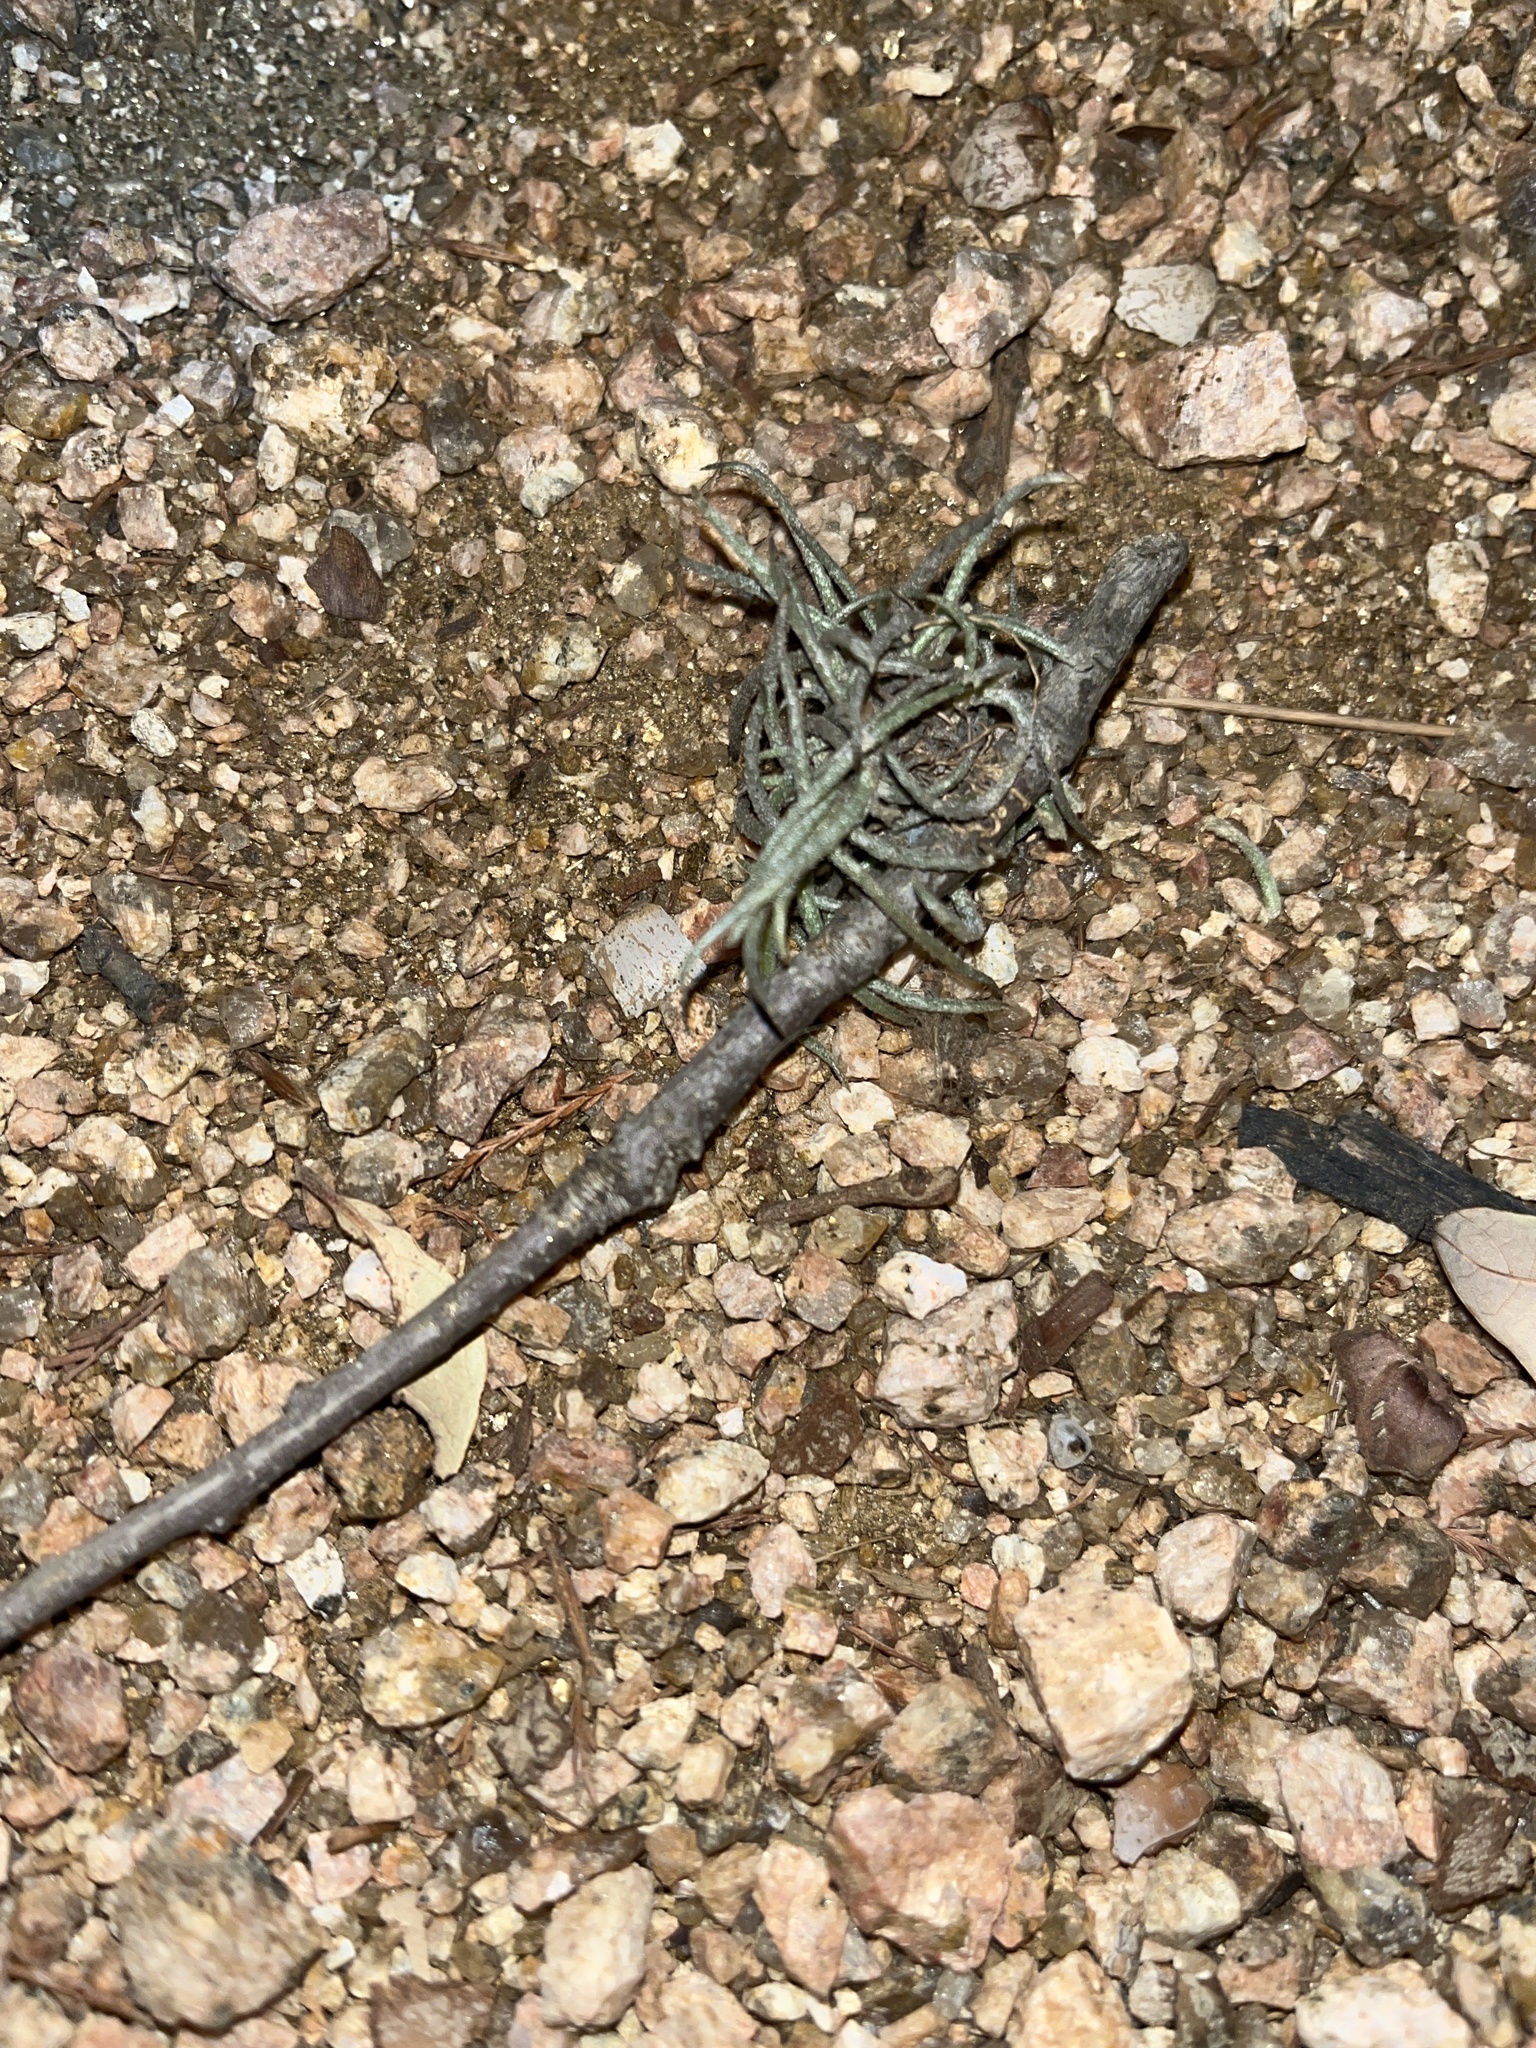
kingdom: Plantae
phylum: Tracheophyta
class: Liliopsida
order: Poales
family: Bromeliaceae
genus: Tillandsia
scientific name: Tillandsia recurvata
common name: Small ballmoss
